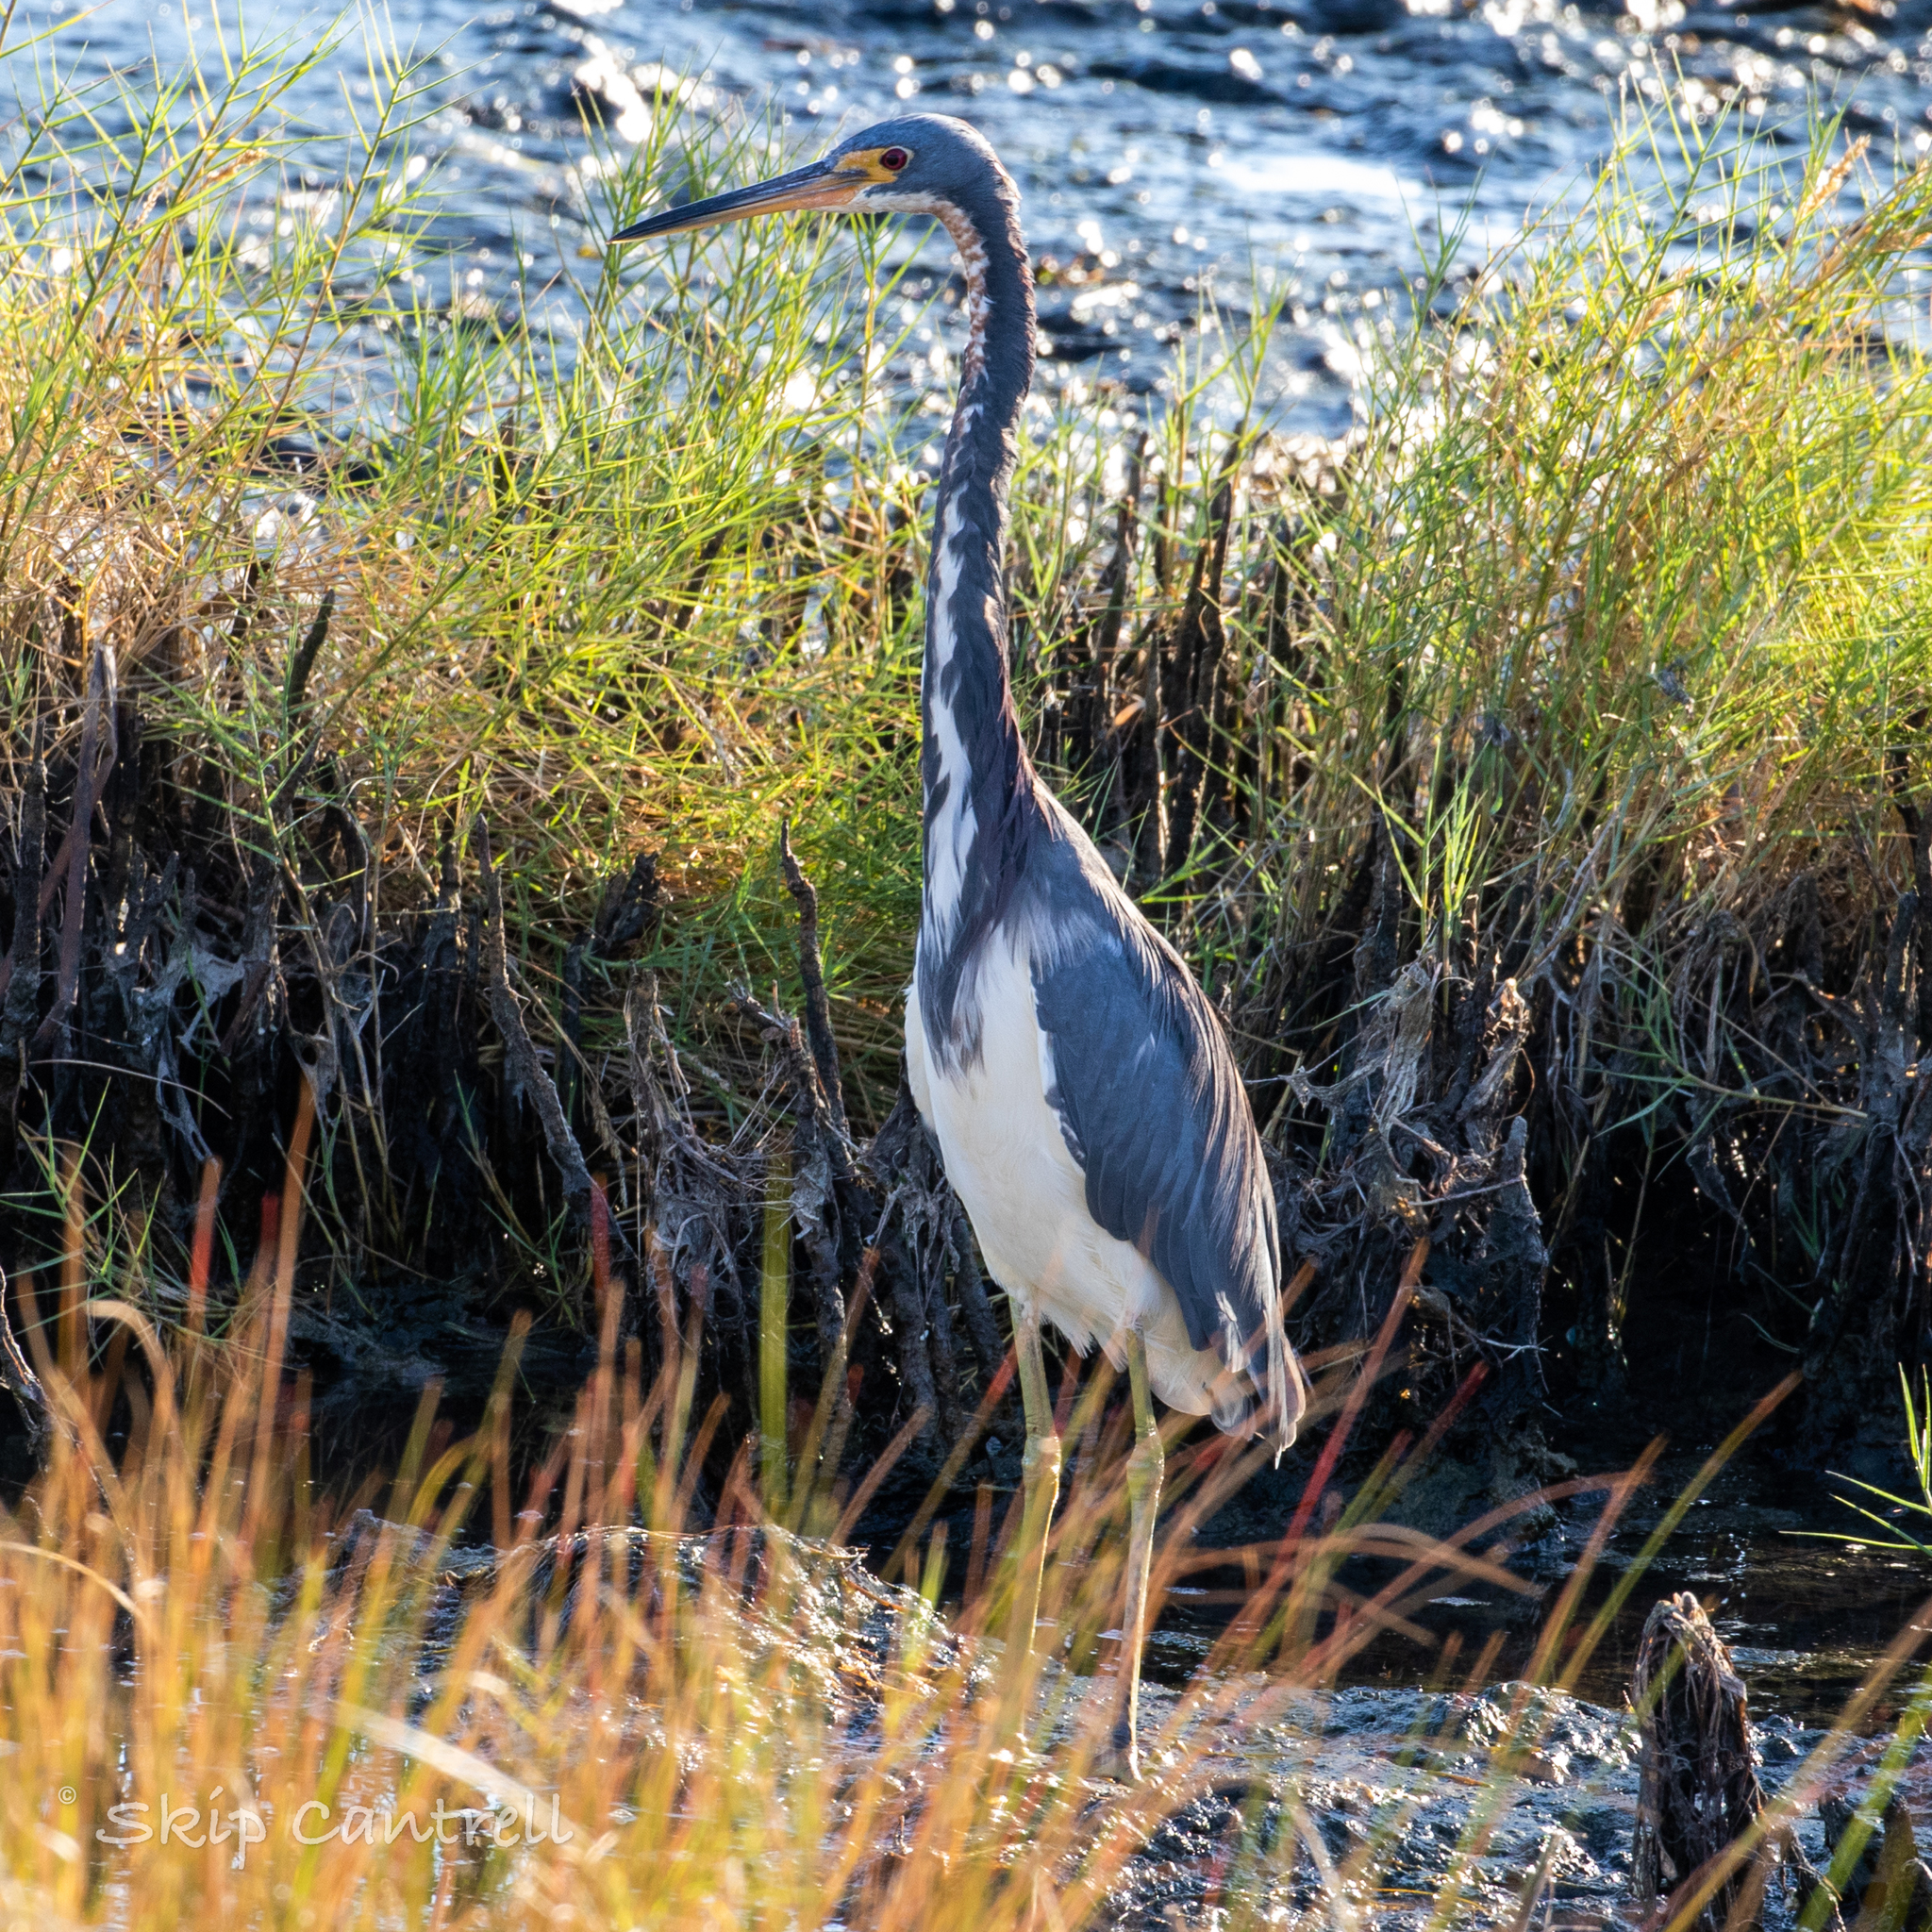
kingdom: Animalia
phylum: Chordata
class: Aves
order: Pelecaniformes
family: Ardeidae
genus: Egretta
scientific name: Egretta tricolor
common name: Tricolored heron
